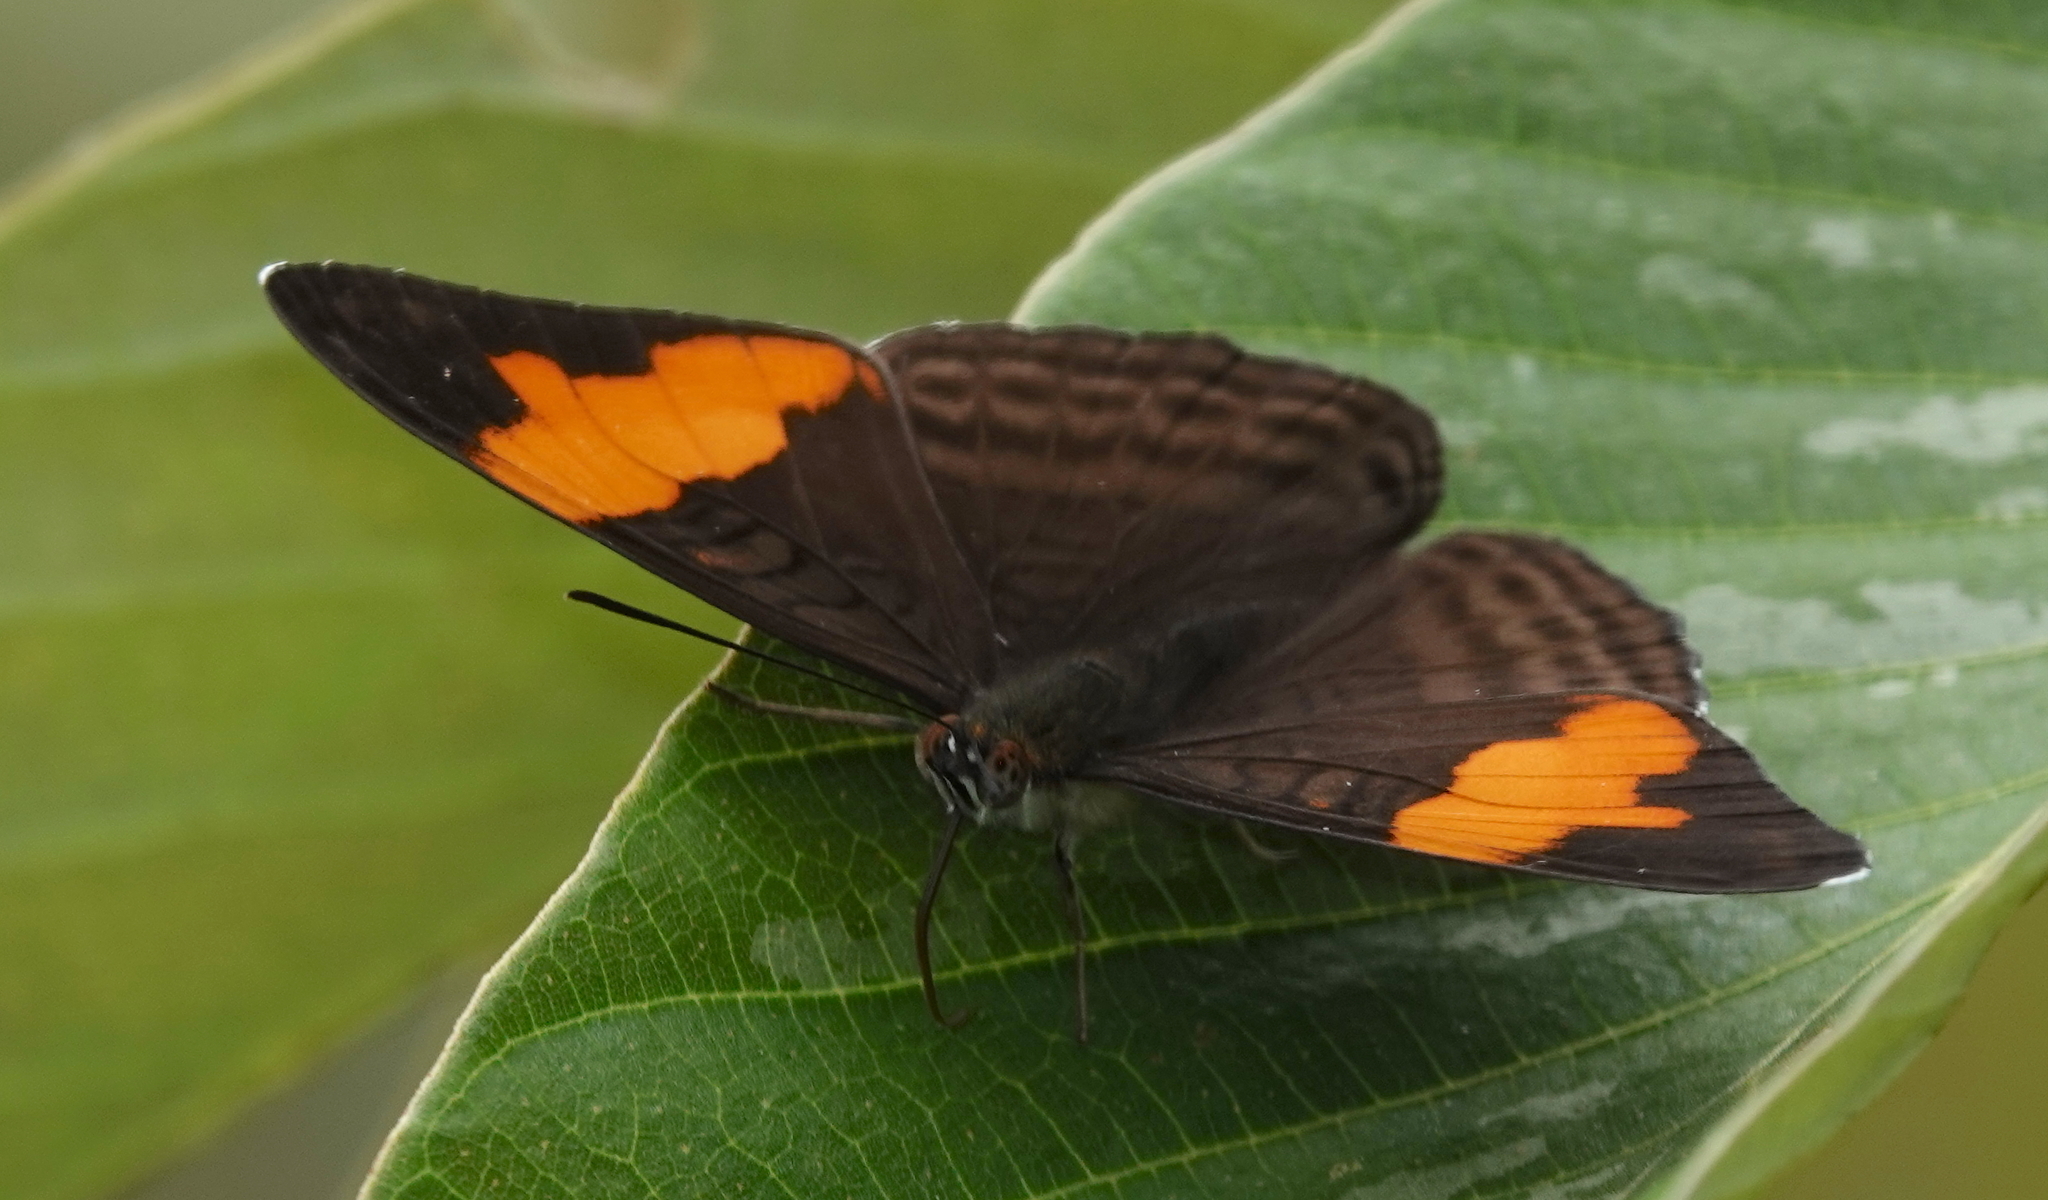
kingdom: Animalia
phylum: Arthropoda
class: Insecta
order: Lepidoptera
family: Nymphalidae
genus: Limenitis
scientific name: Limenitis saundersii
